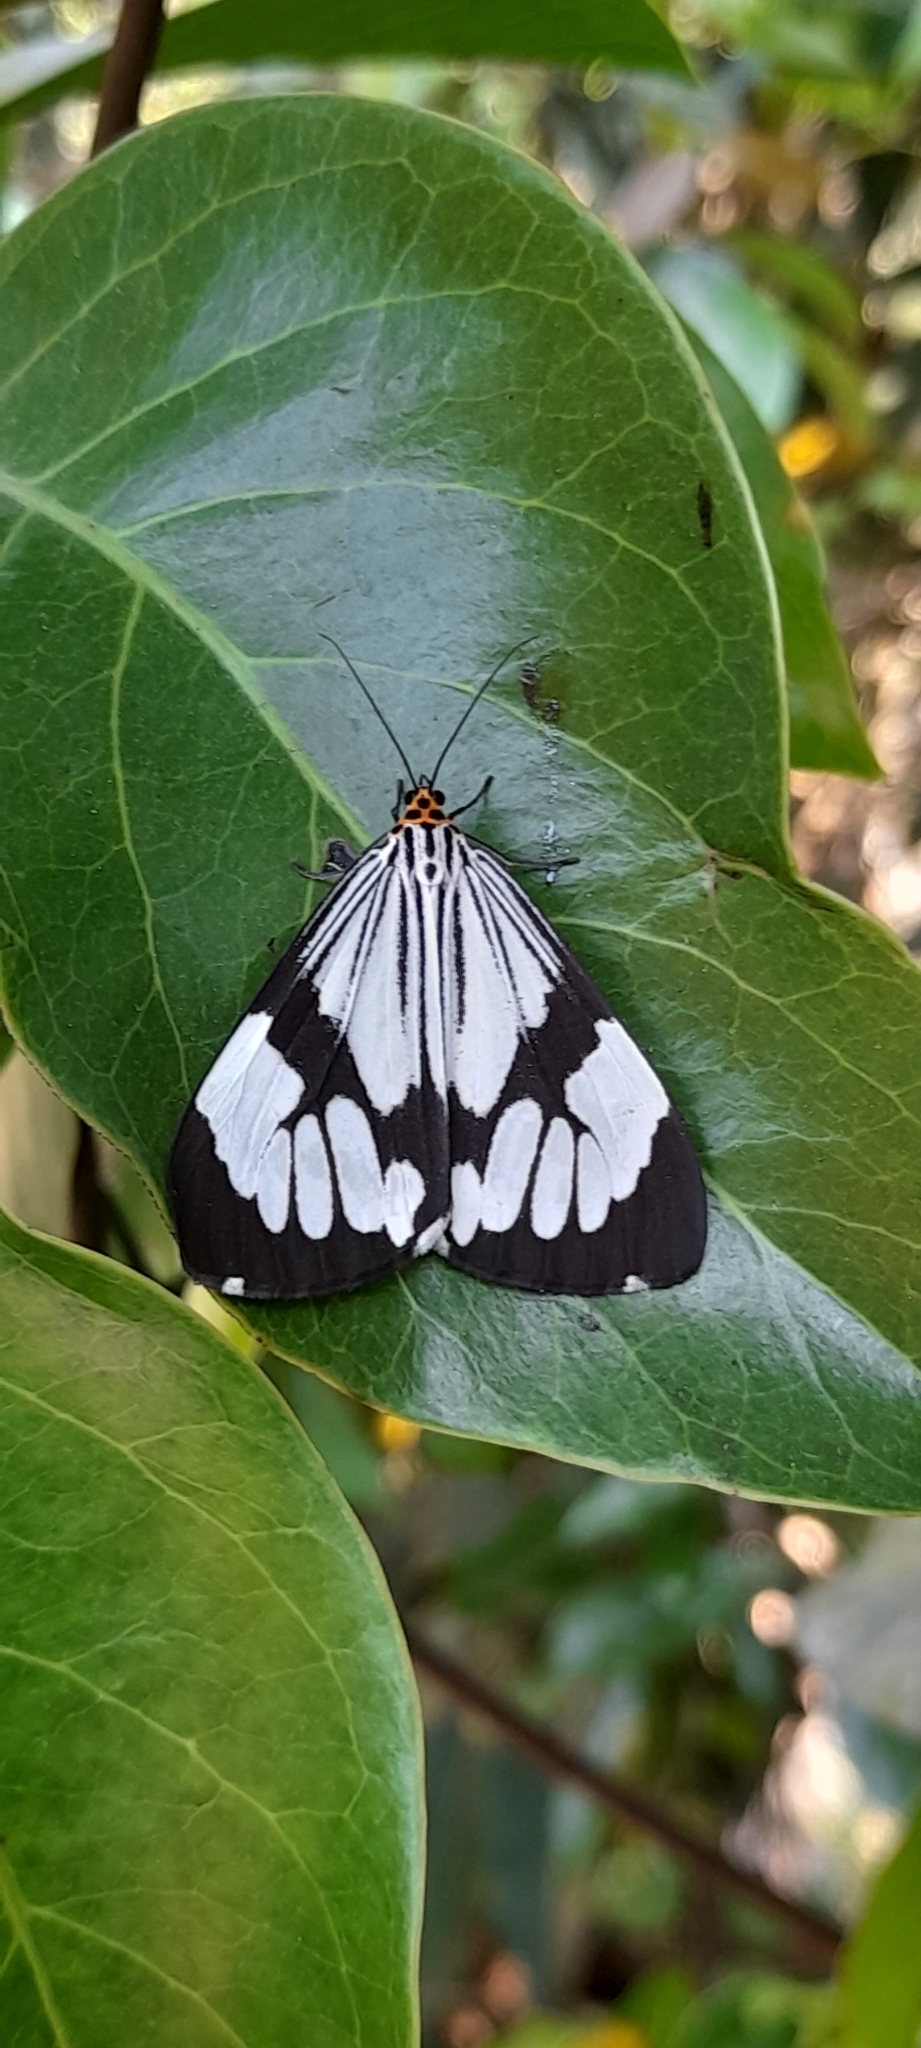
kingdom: Animalia
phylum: Arthropoda
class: Insecta
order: Lepidoptera
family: Erebidae
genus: Nyctemera
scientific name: Nyctemera coleta
